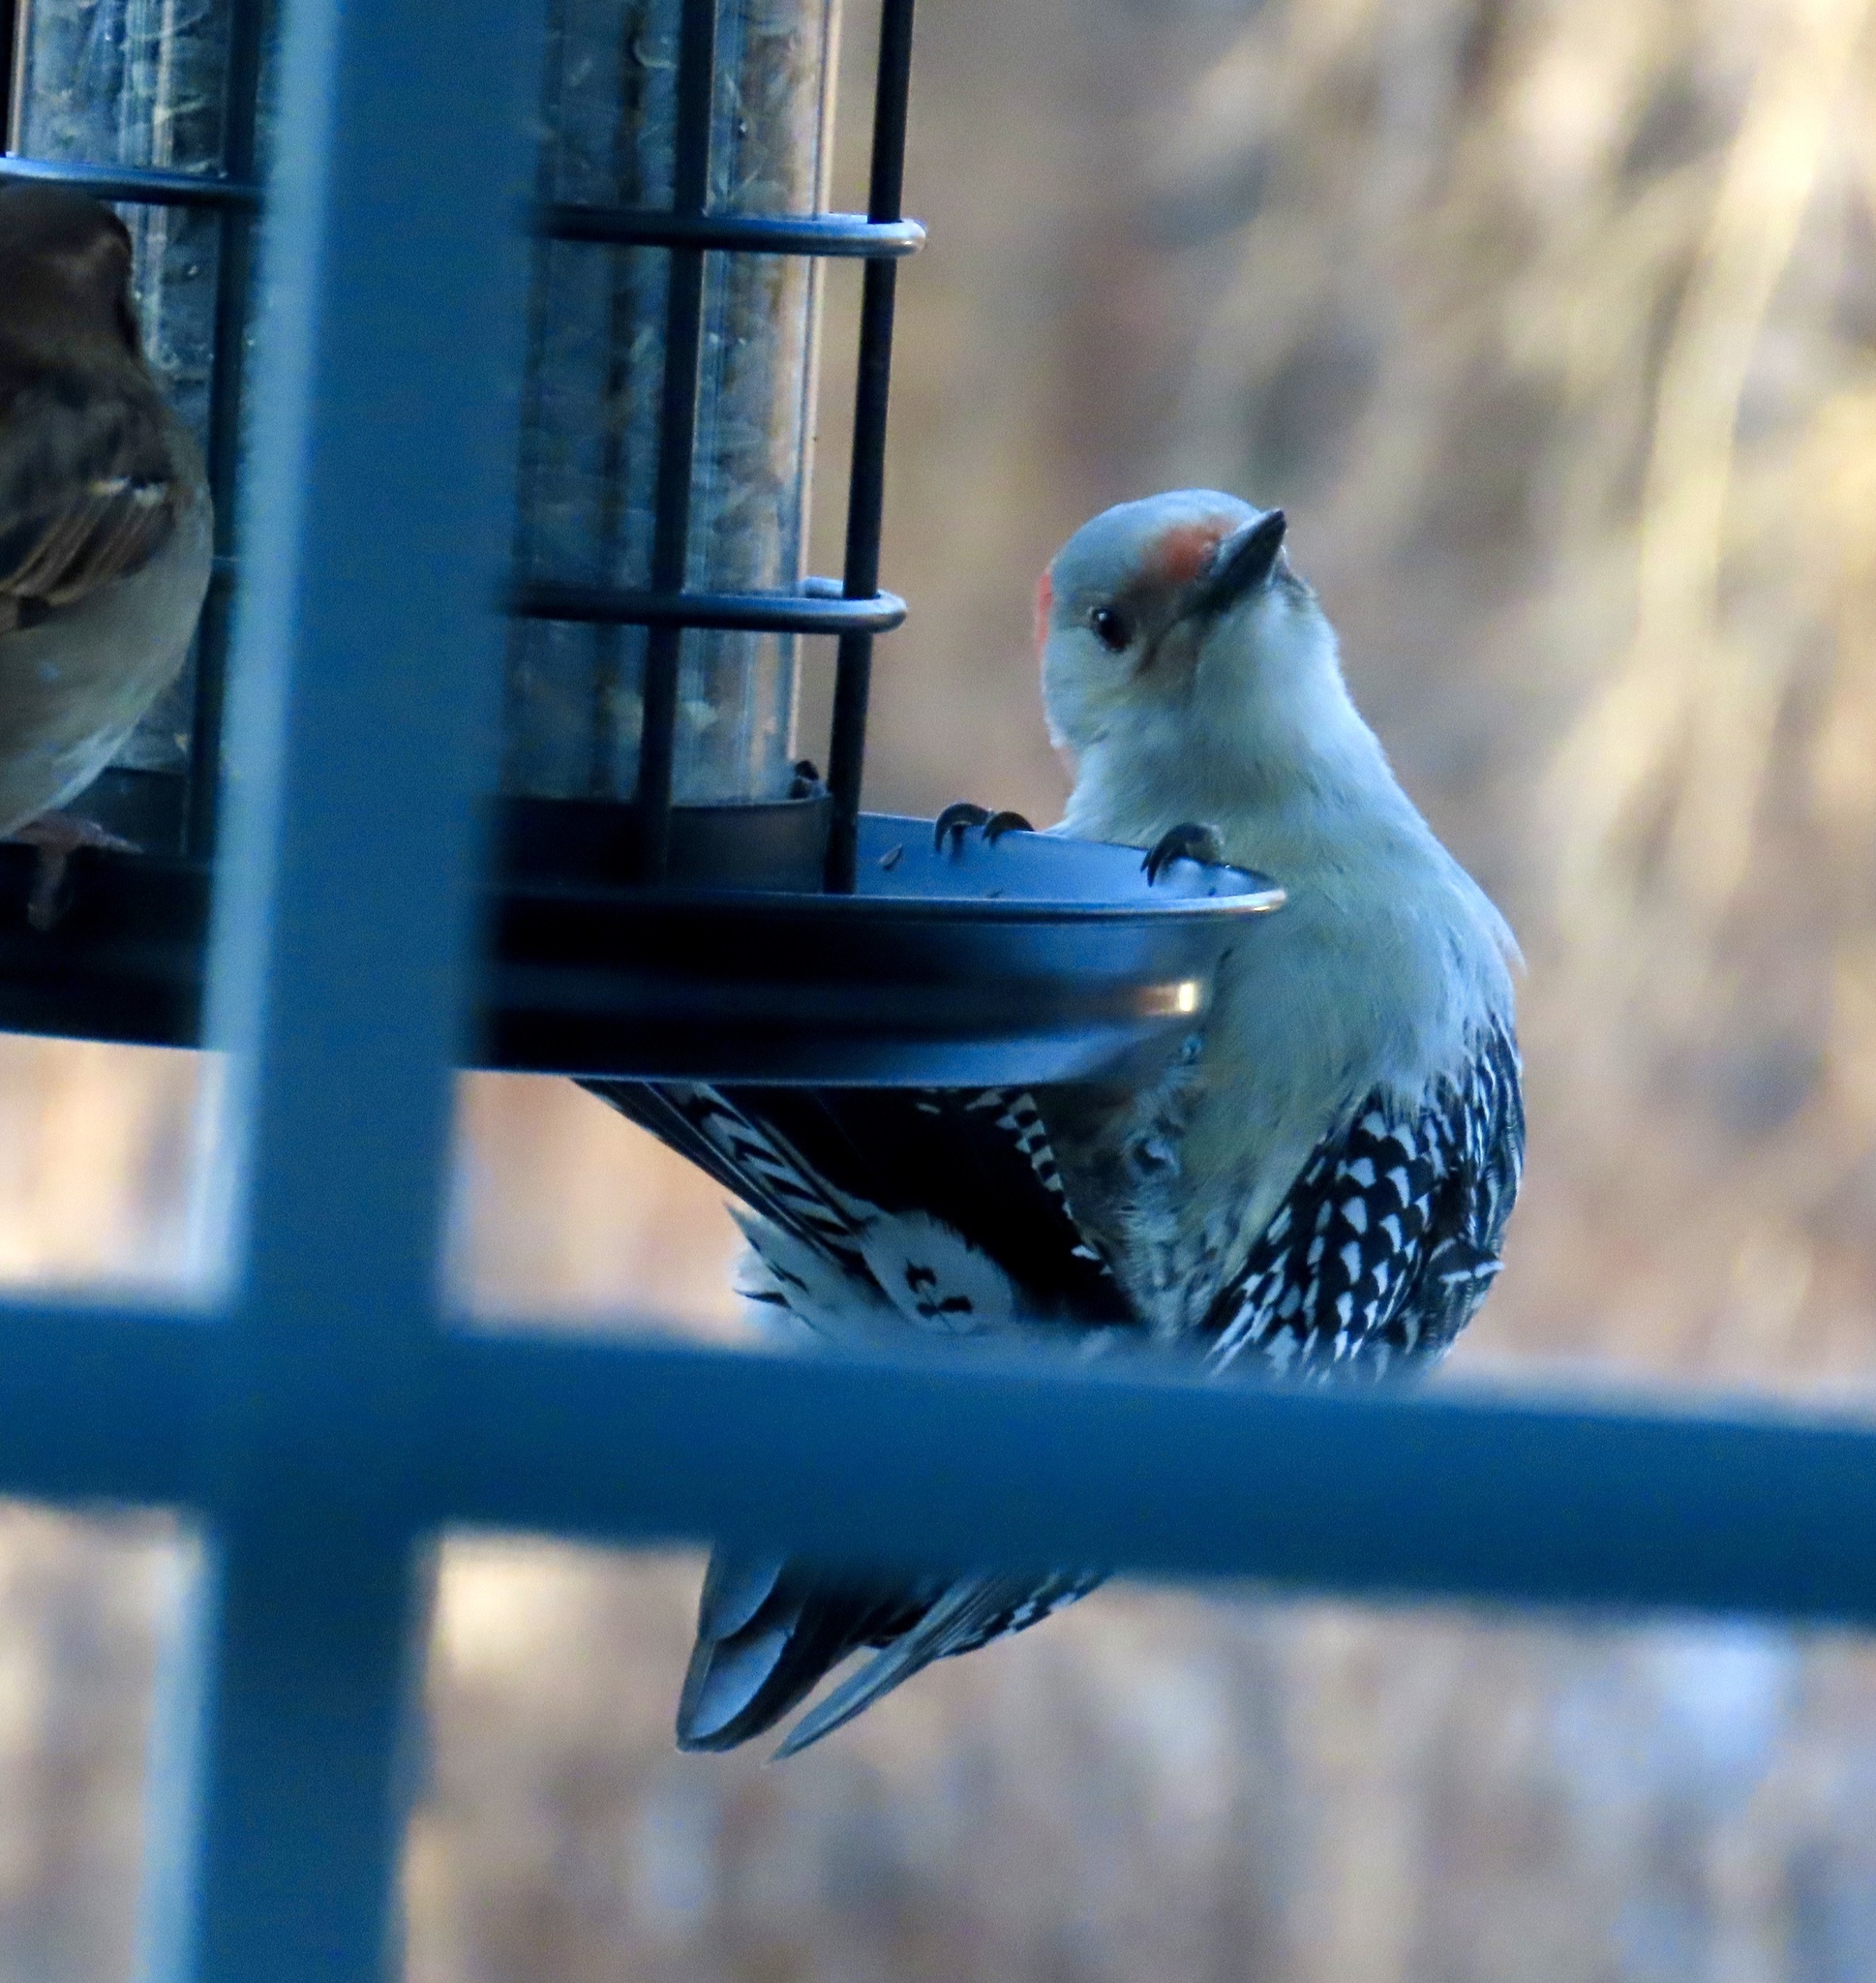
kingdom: Animalia
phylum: Chordata
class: Aves
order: Piciformes
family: Picidae
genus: Melanerpes
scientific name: Melanerpes carolinus
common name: Red-bellied woodpecker
